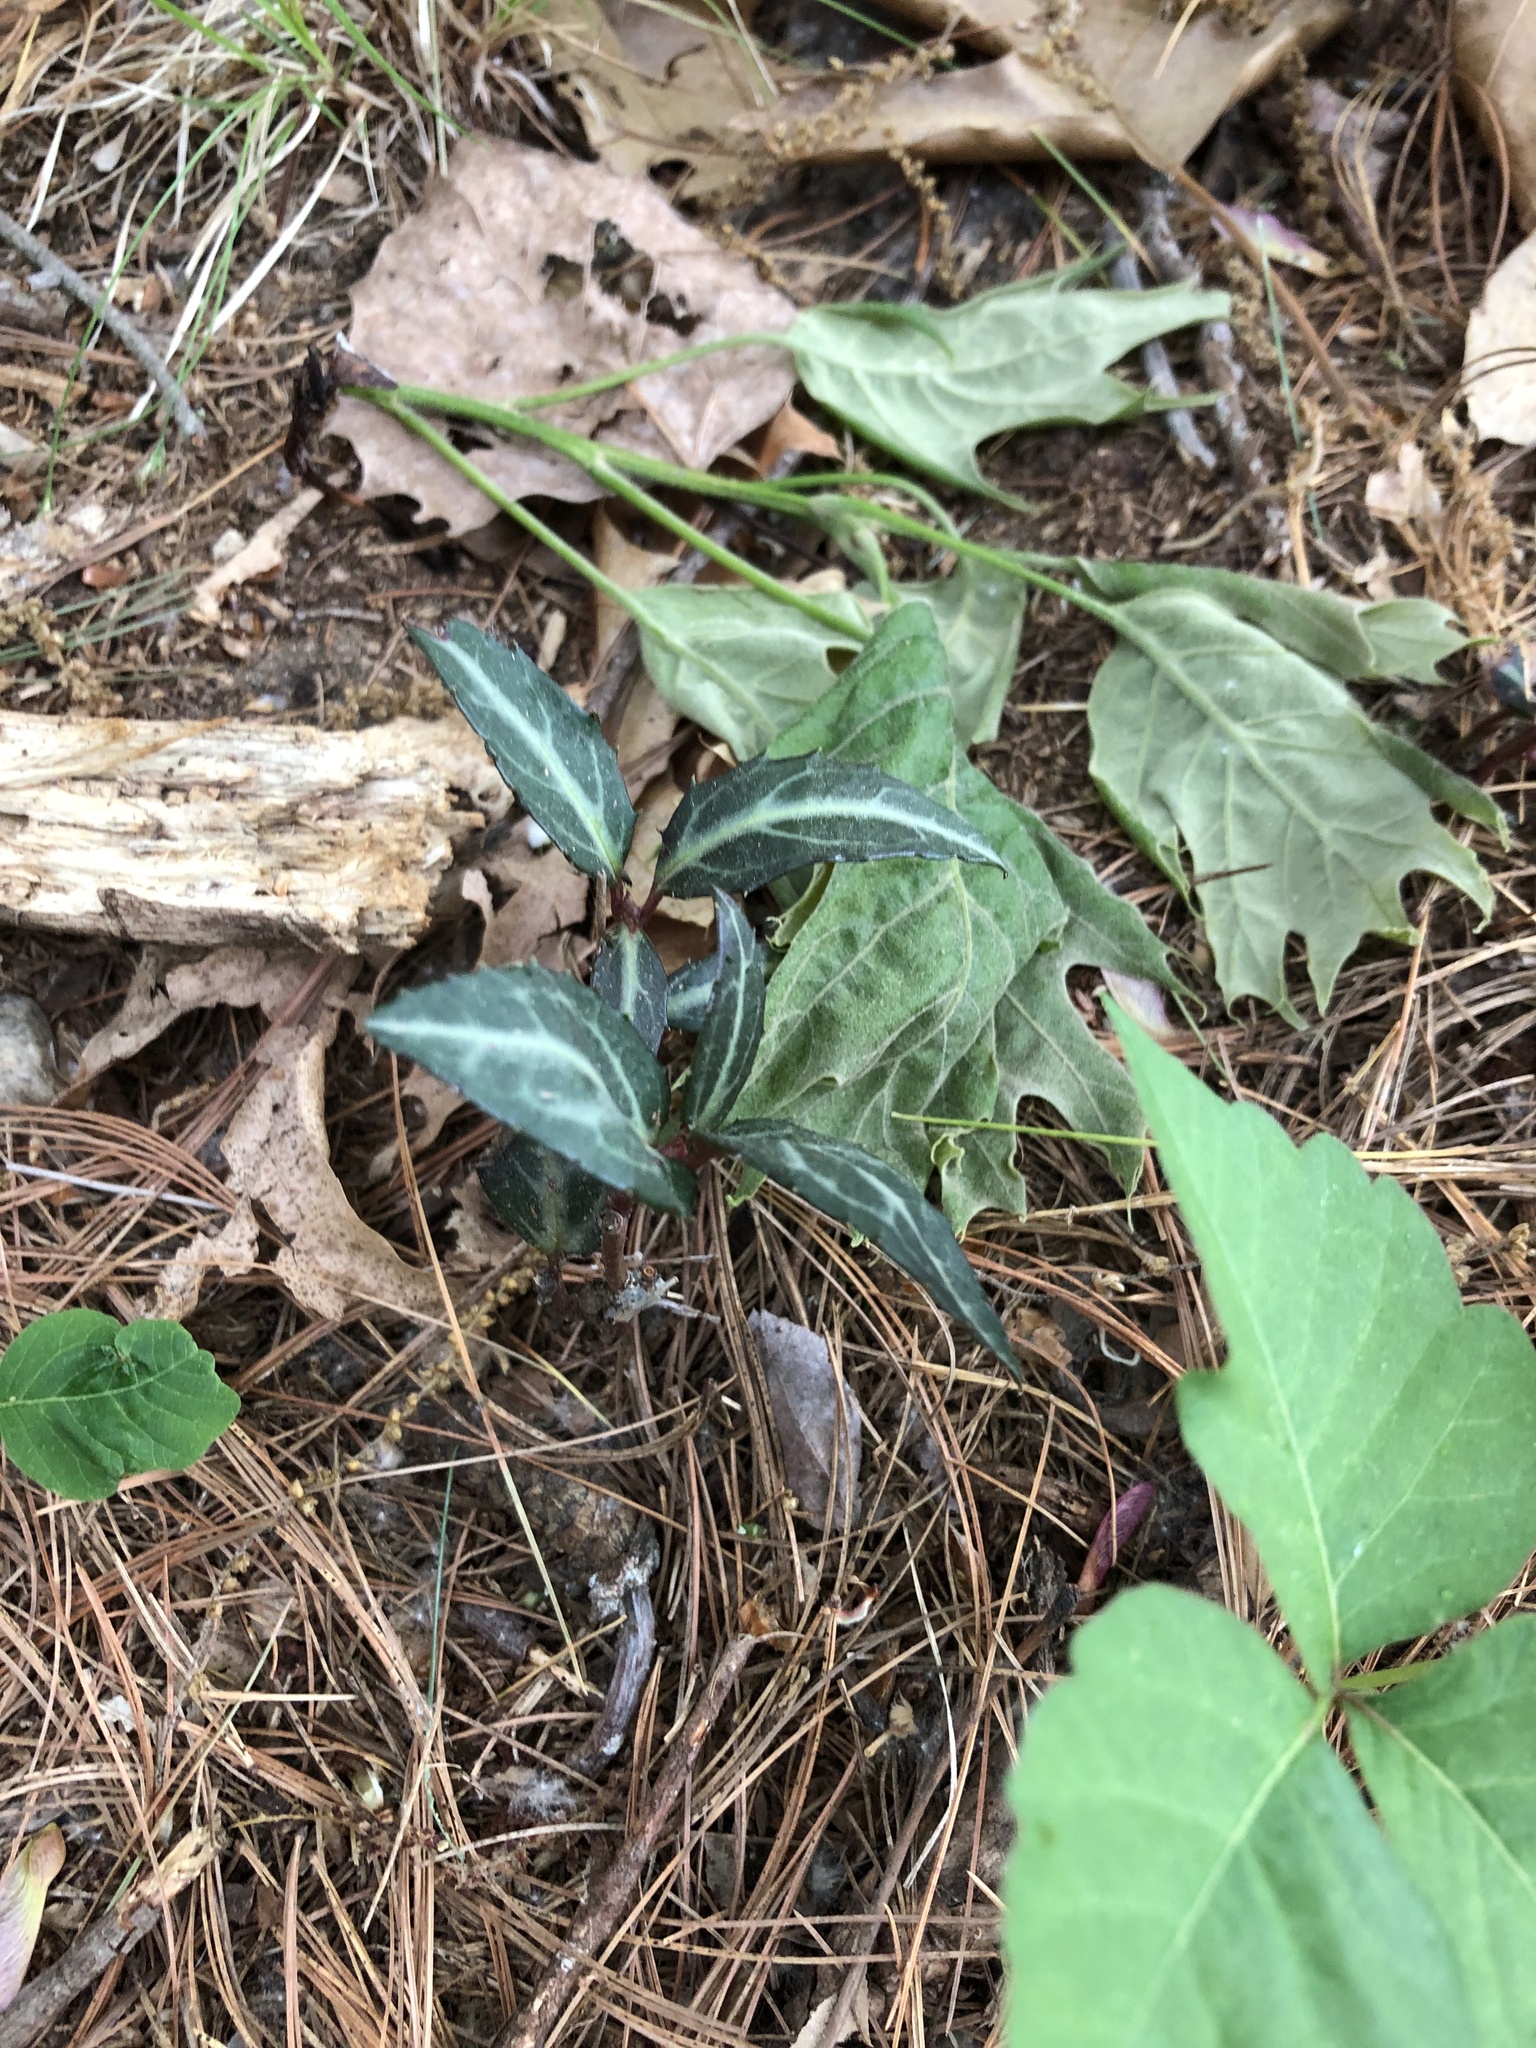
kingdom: Plantae
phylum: Tracheophyta
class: Magnoliopsida
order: Ericales
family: Ericaceae
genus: Chimaphila
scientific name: Chimaphila maculata
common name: Spotted pipsissewa
